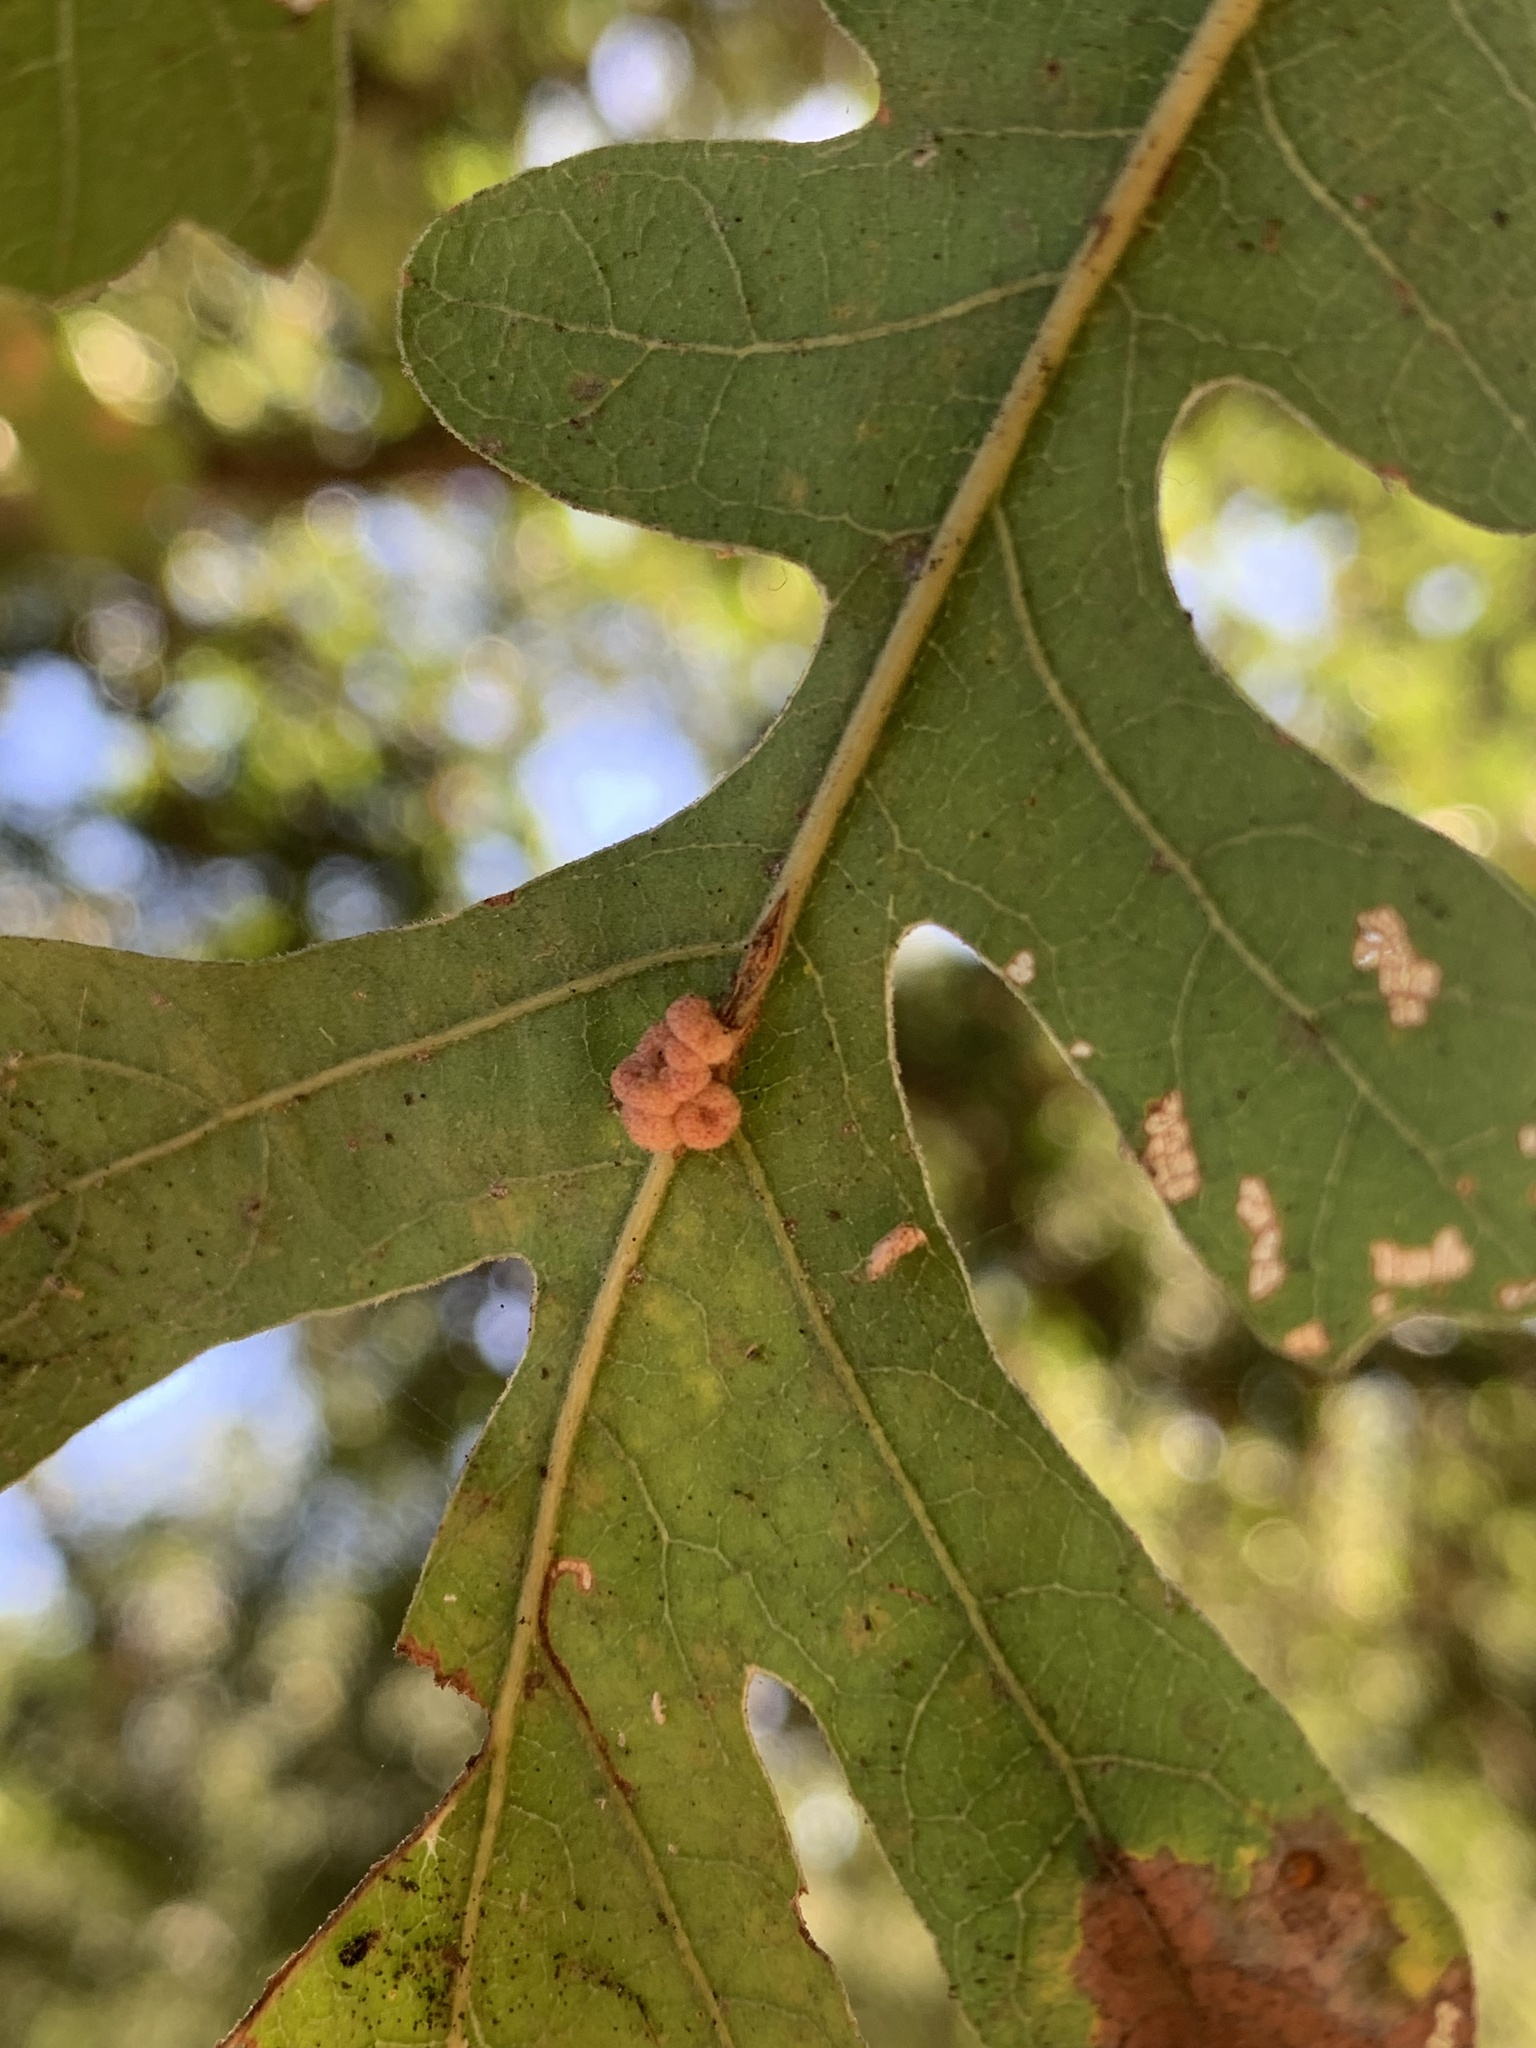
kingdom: Animalia
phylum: Arthropoda
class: Insecta
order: Hymenoptera
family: Cynipidae
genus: Andricus
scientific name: Andricus
